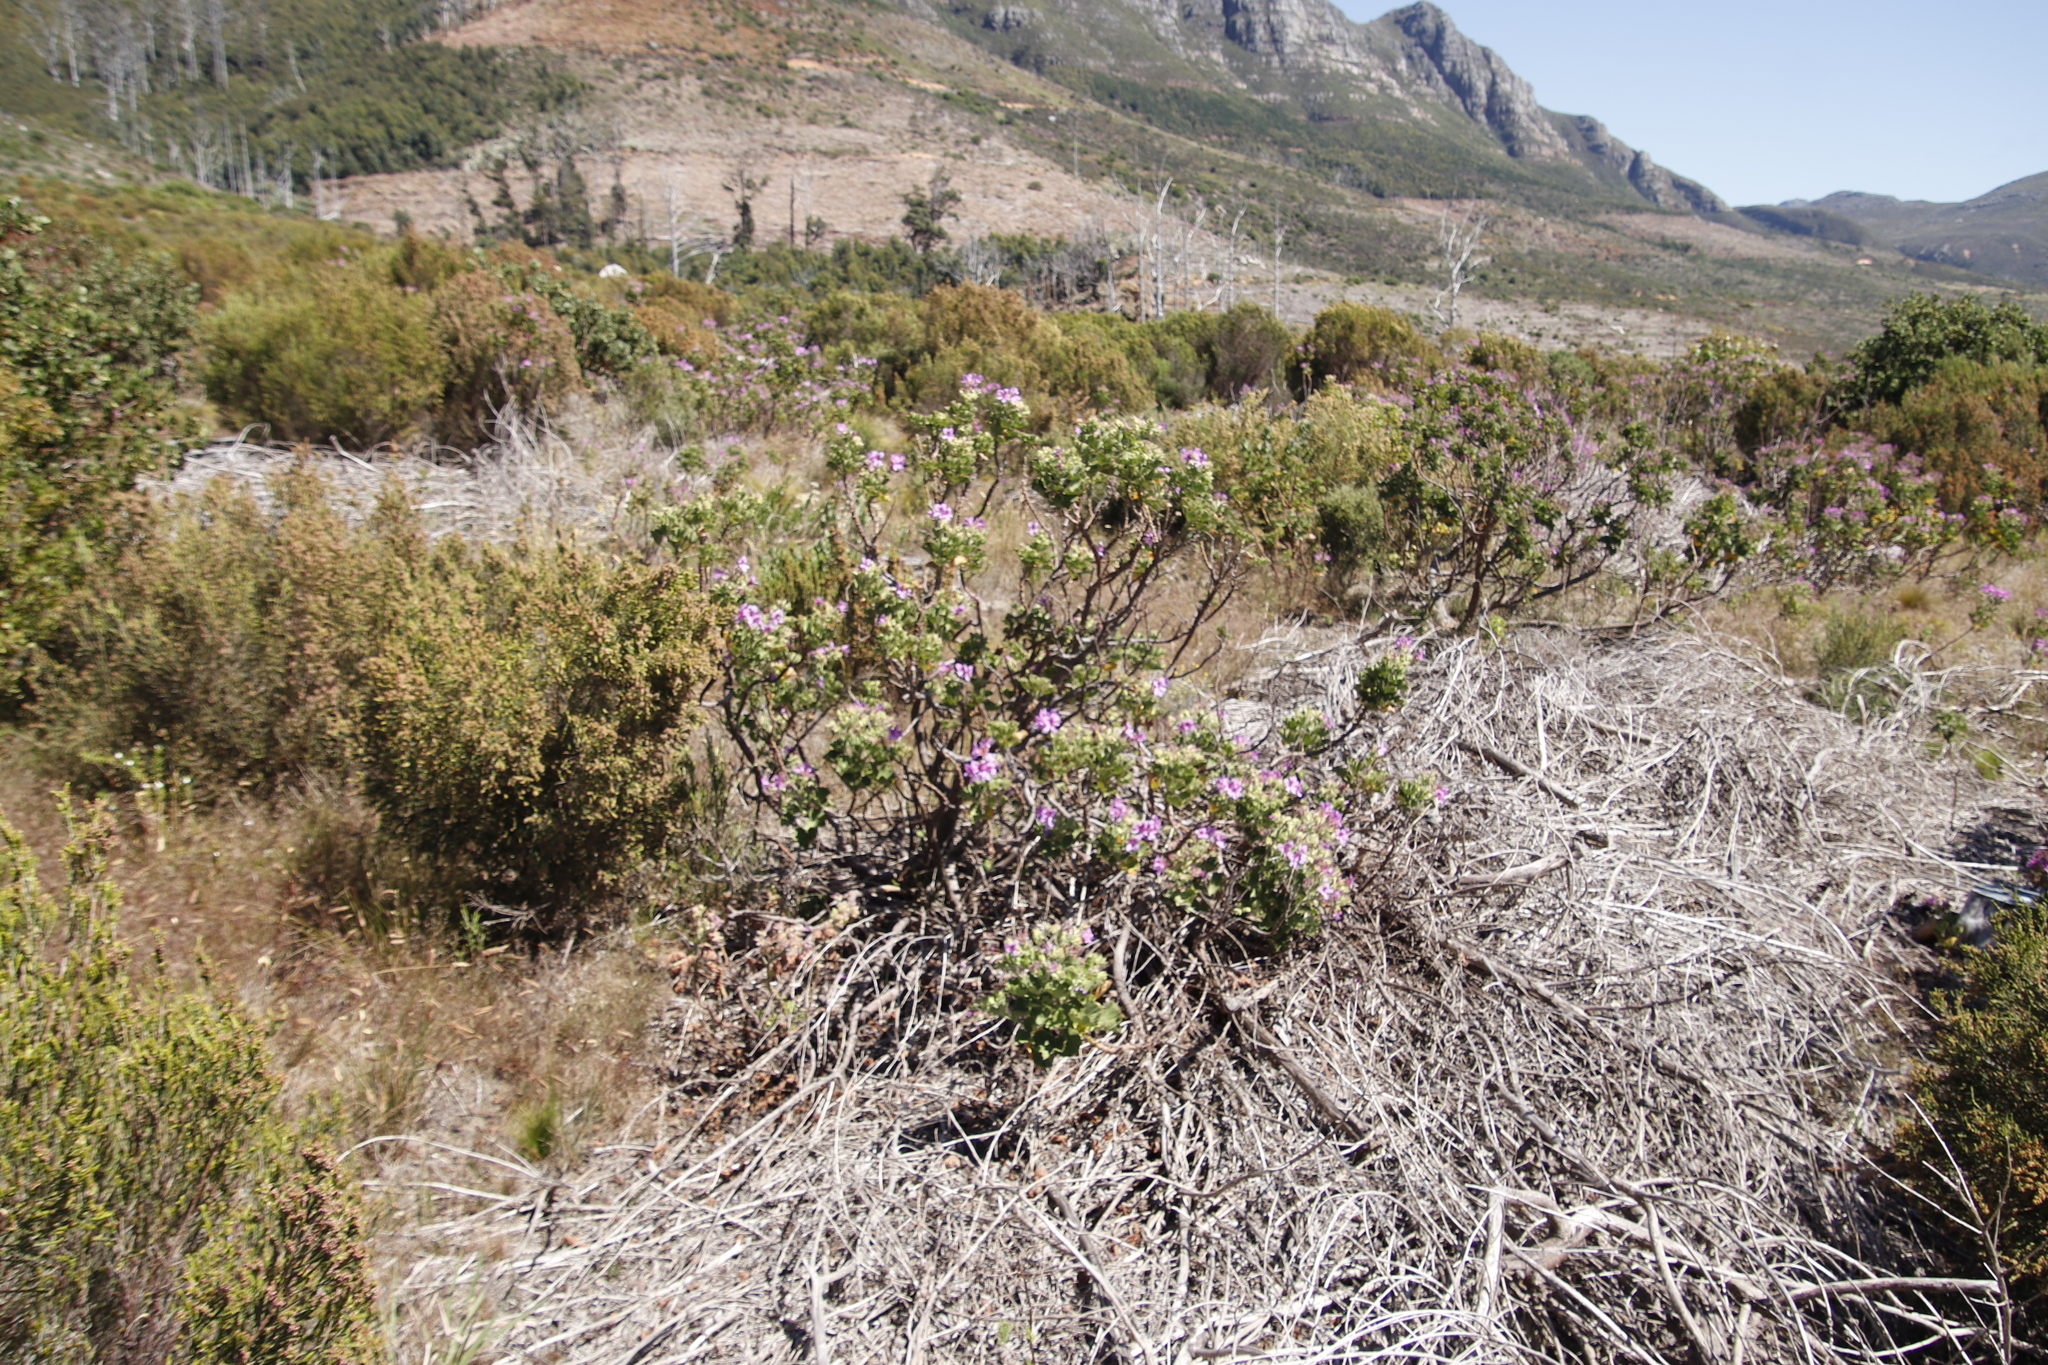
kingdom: Plantae
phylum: Tracheophyta
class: Magnoliopsida
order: Geraniales
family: Geraniaceae
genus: Pelargonium
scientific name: Pelargonium cucullatum
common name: Tree pelargonium
